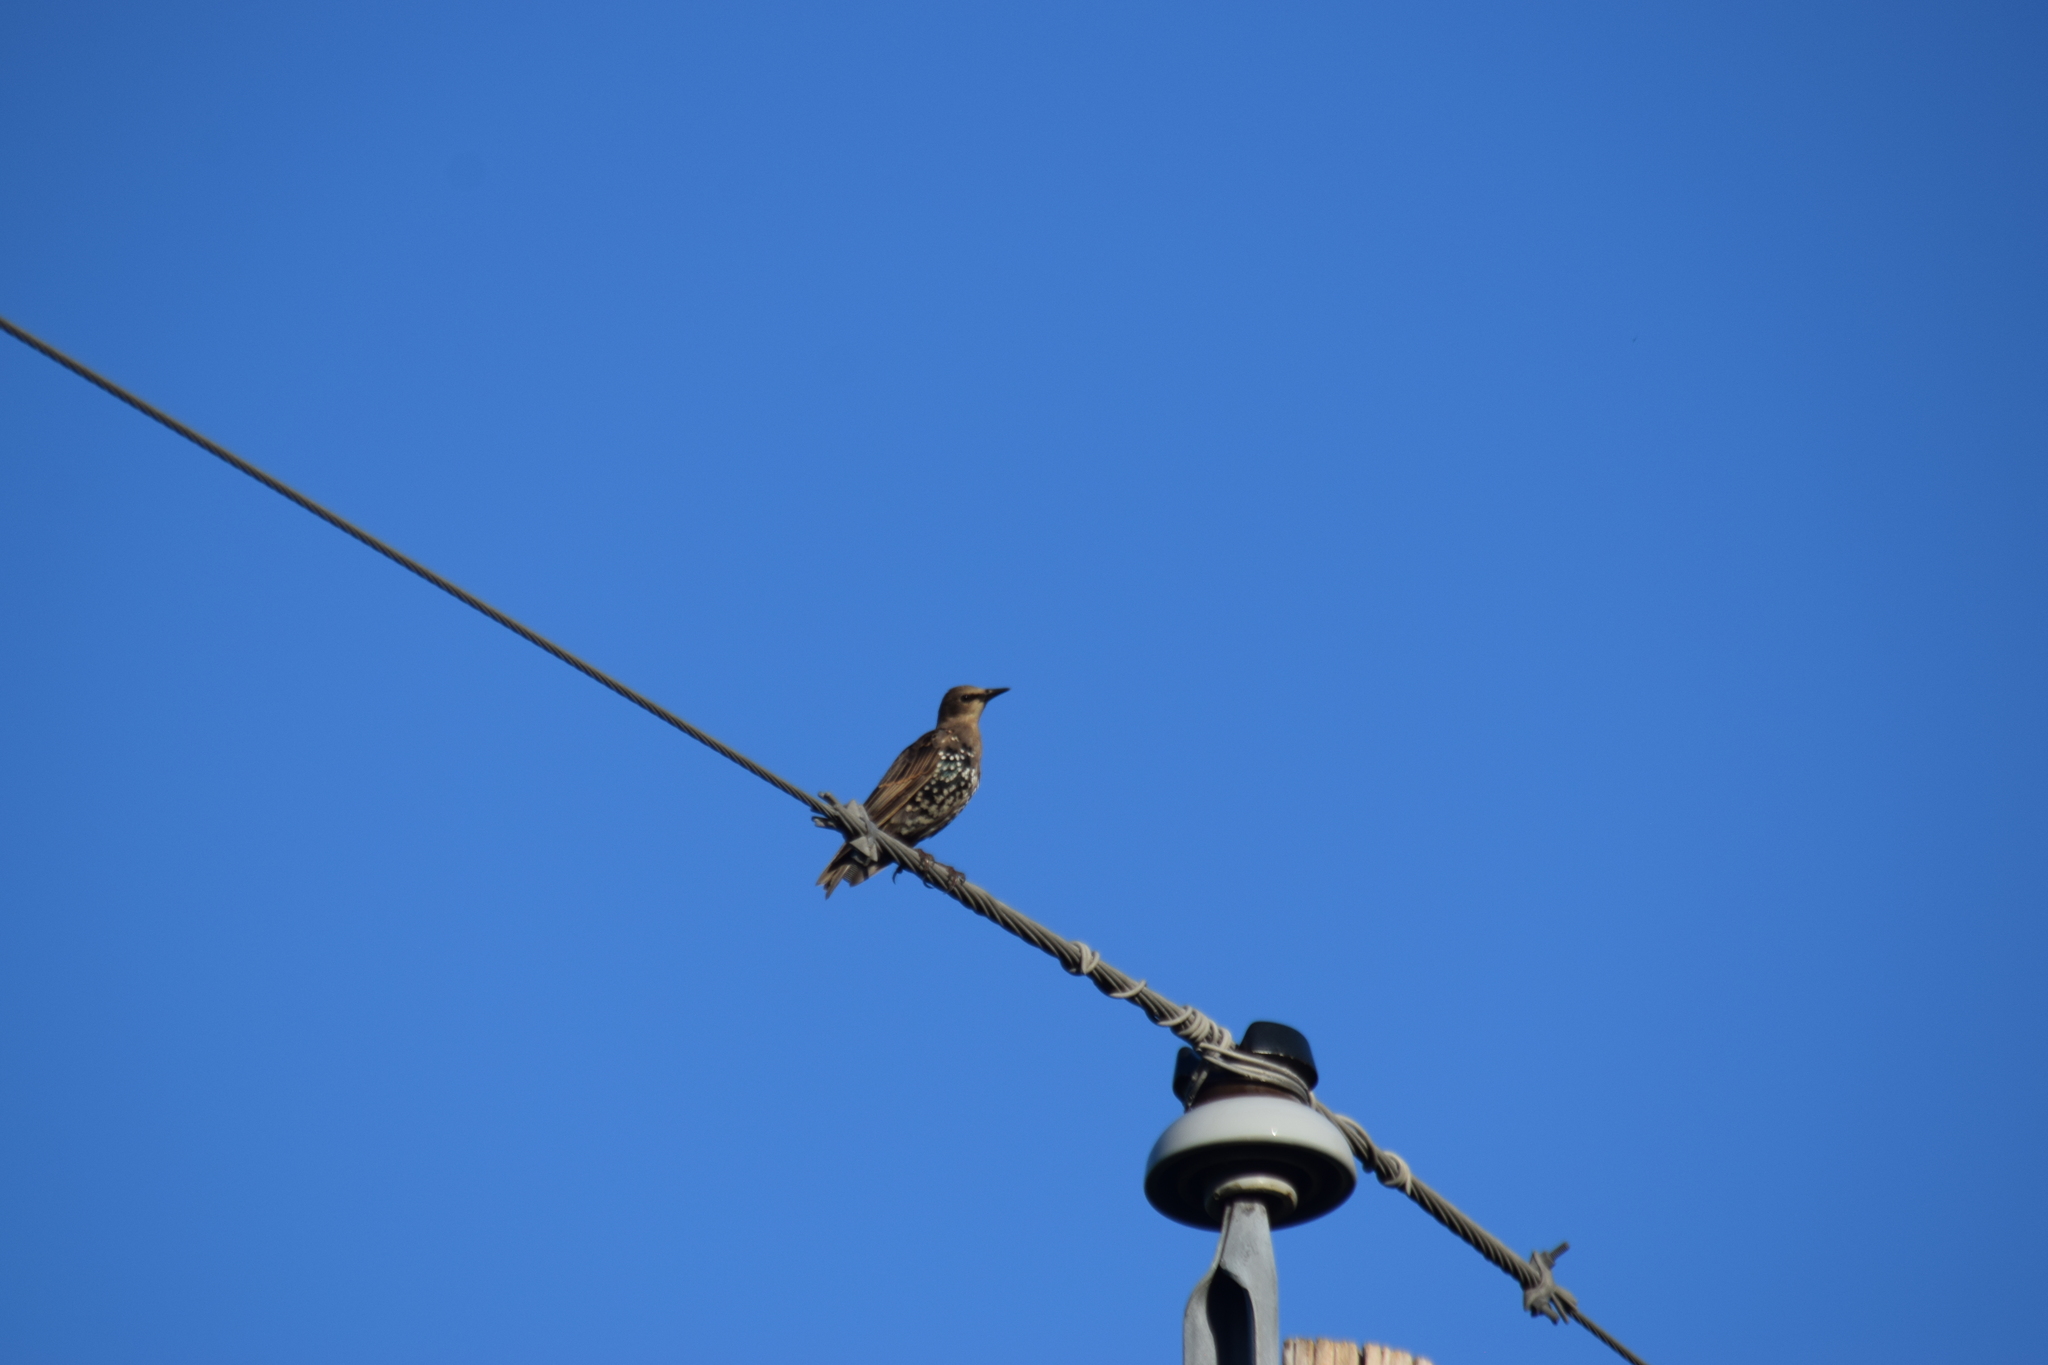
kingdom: Animalia
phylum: Chordata
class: Aves
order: Passeriformes
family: Sturnidae
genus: Sturnus
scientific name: Sturnus vulgaris
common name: Common starling
